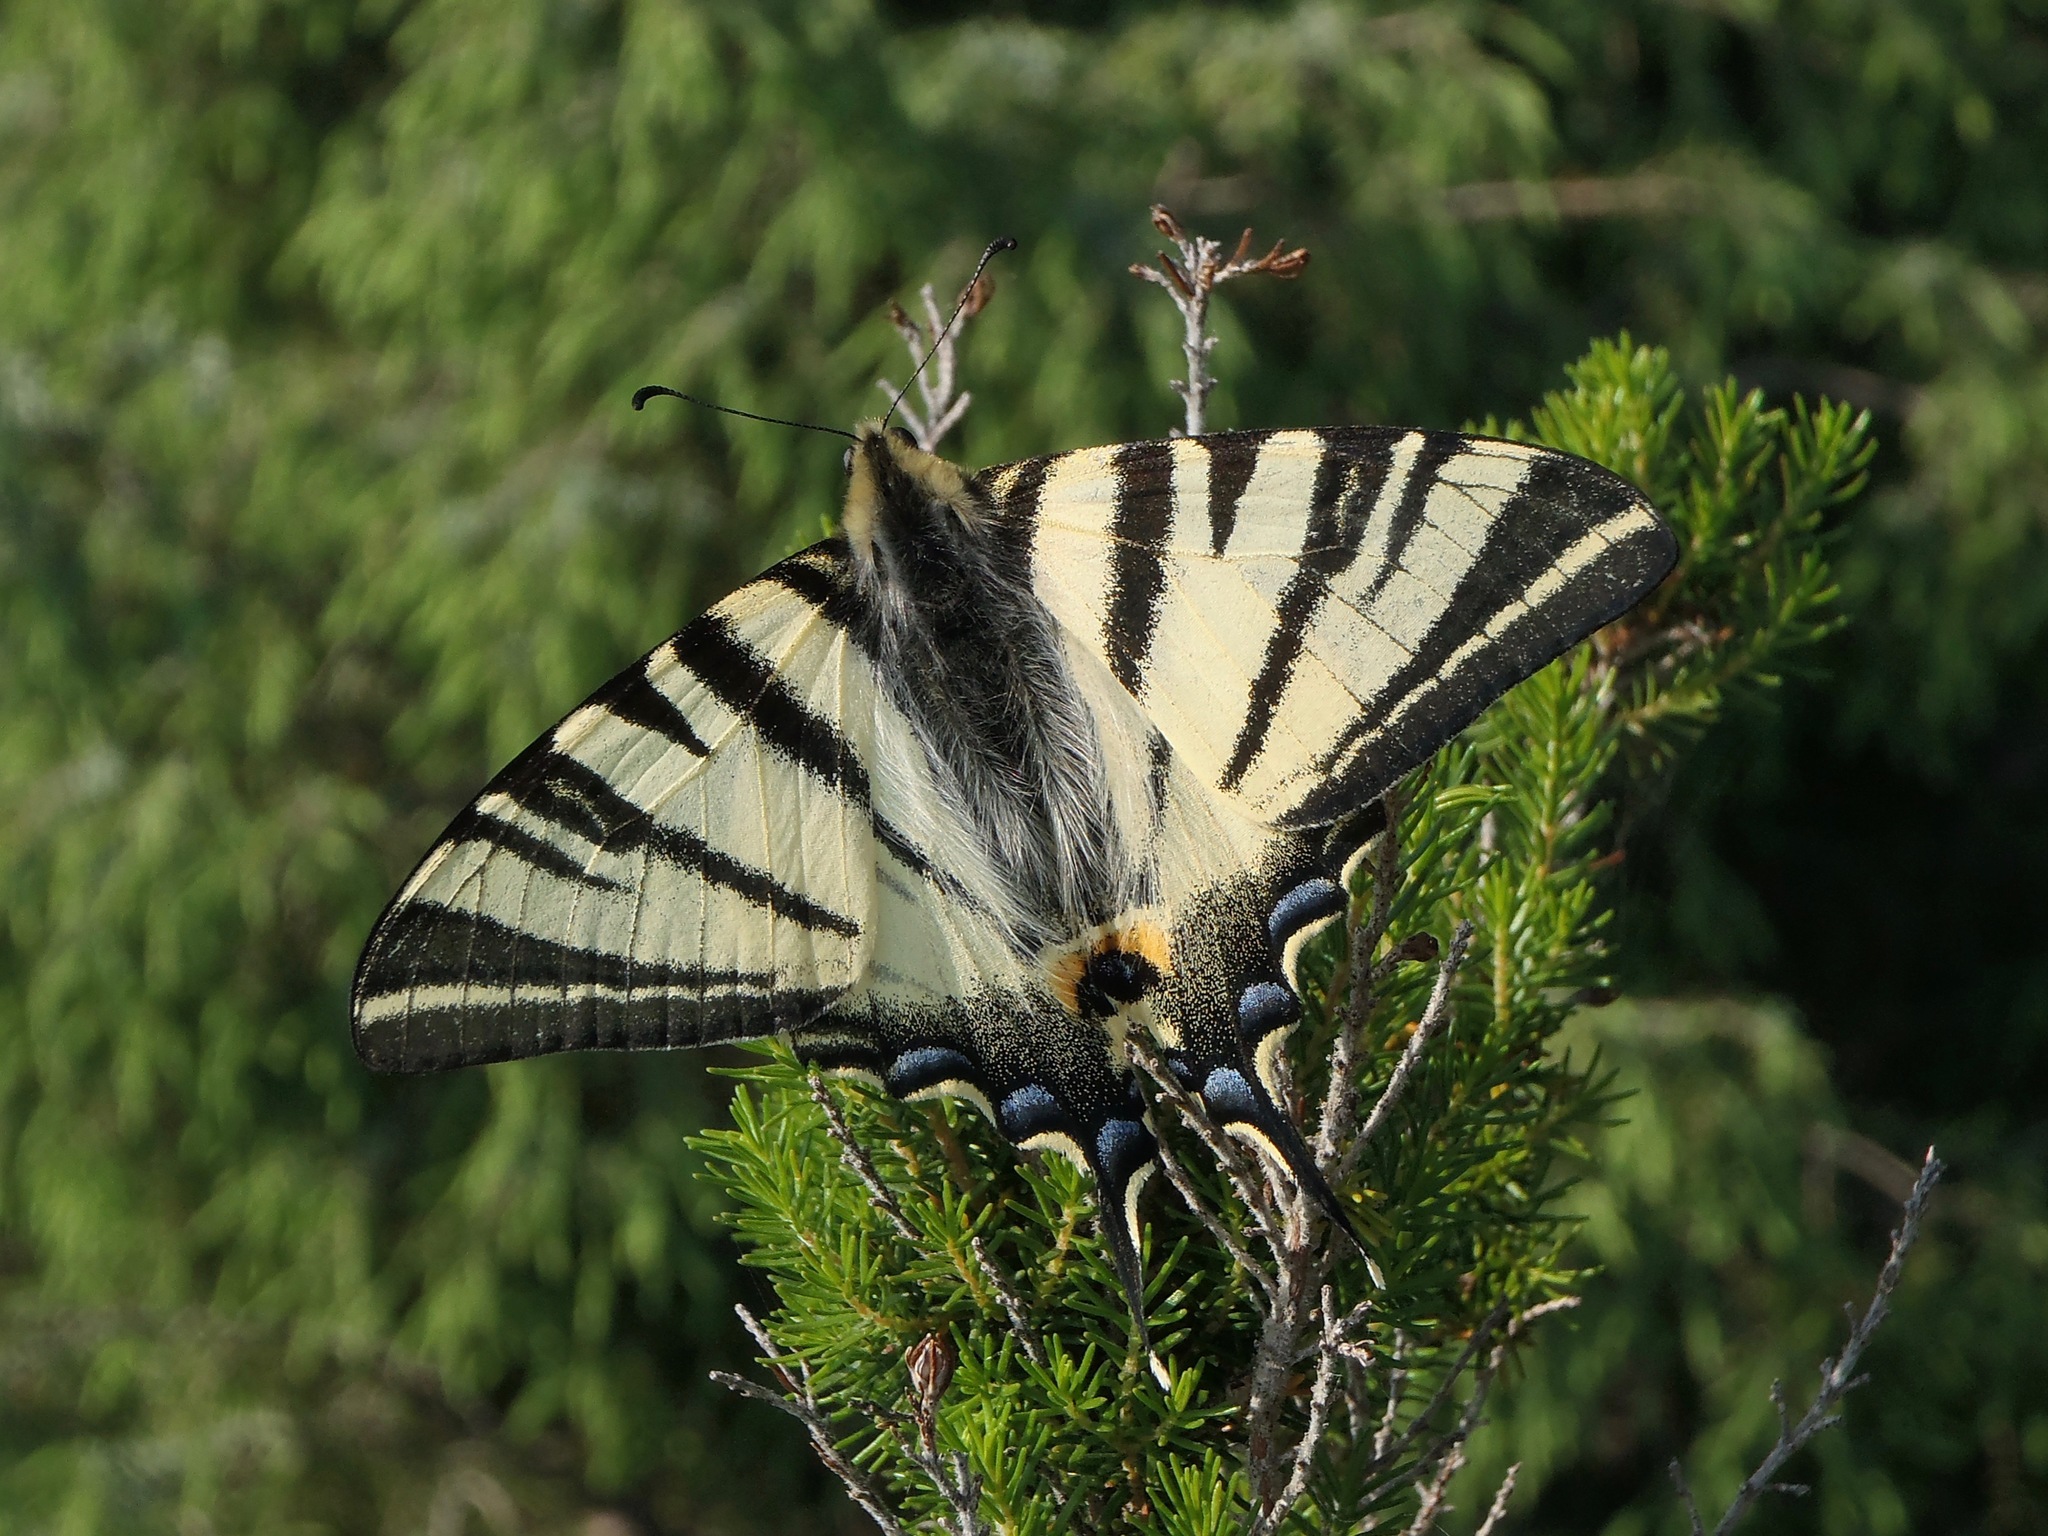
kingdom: Animalia
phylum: Arthropoda
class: Insecta
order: Lepidoptera
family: Papilionidae
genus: Iphiclides
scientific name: Iphiclides podalirius
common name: Scarce swallowtail
